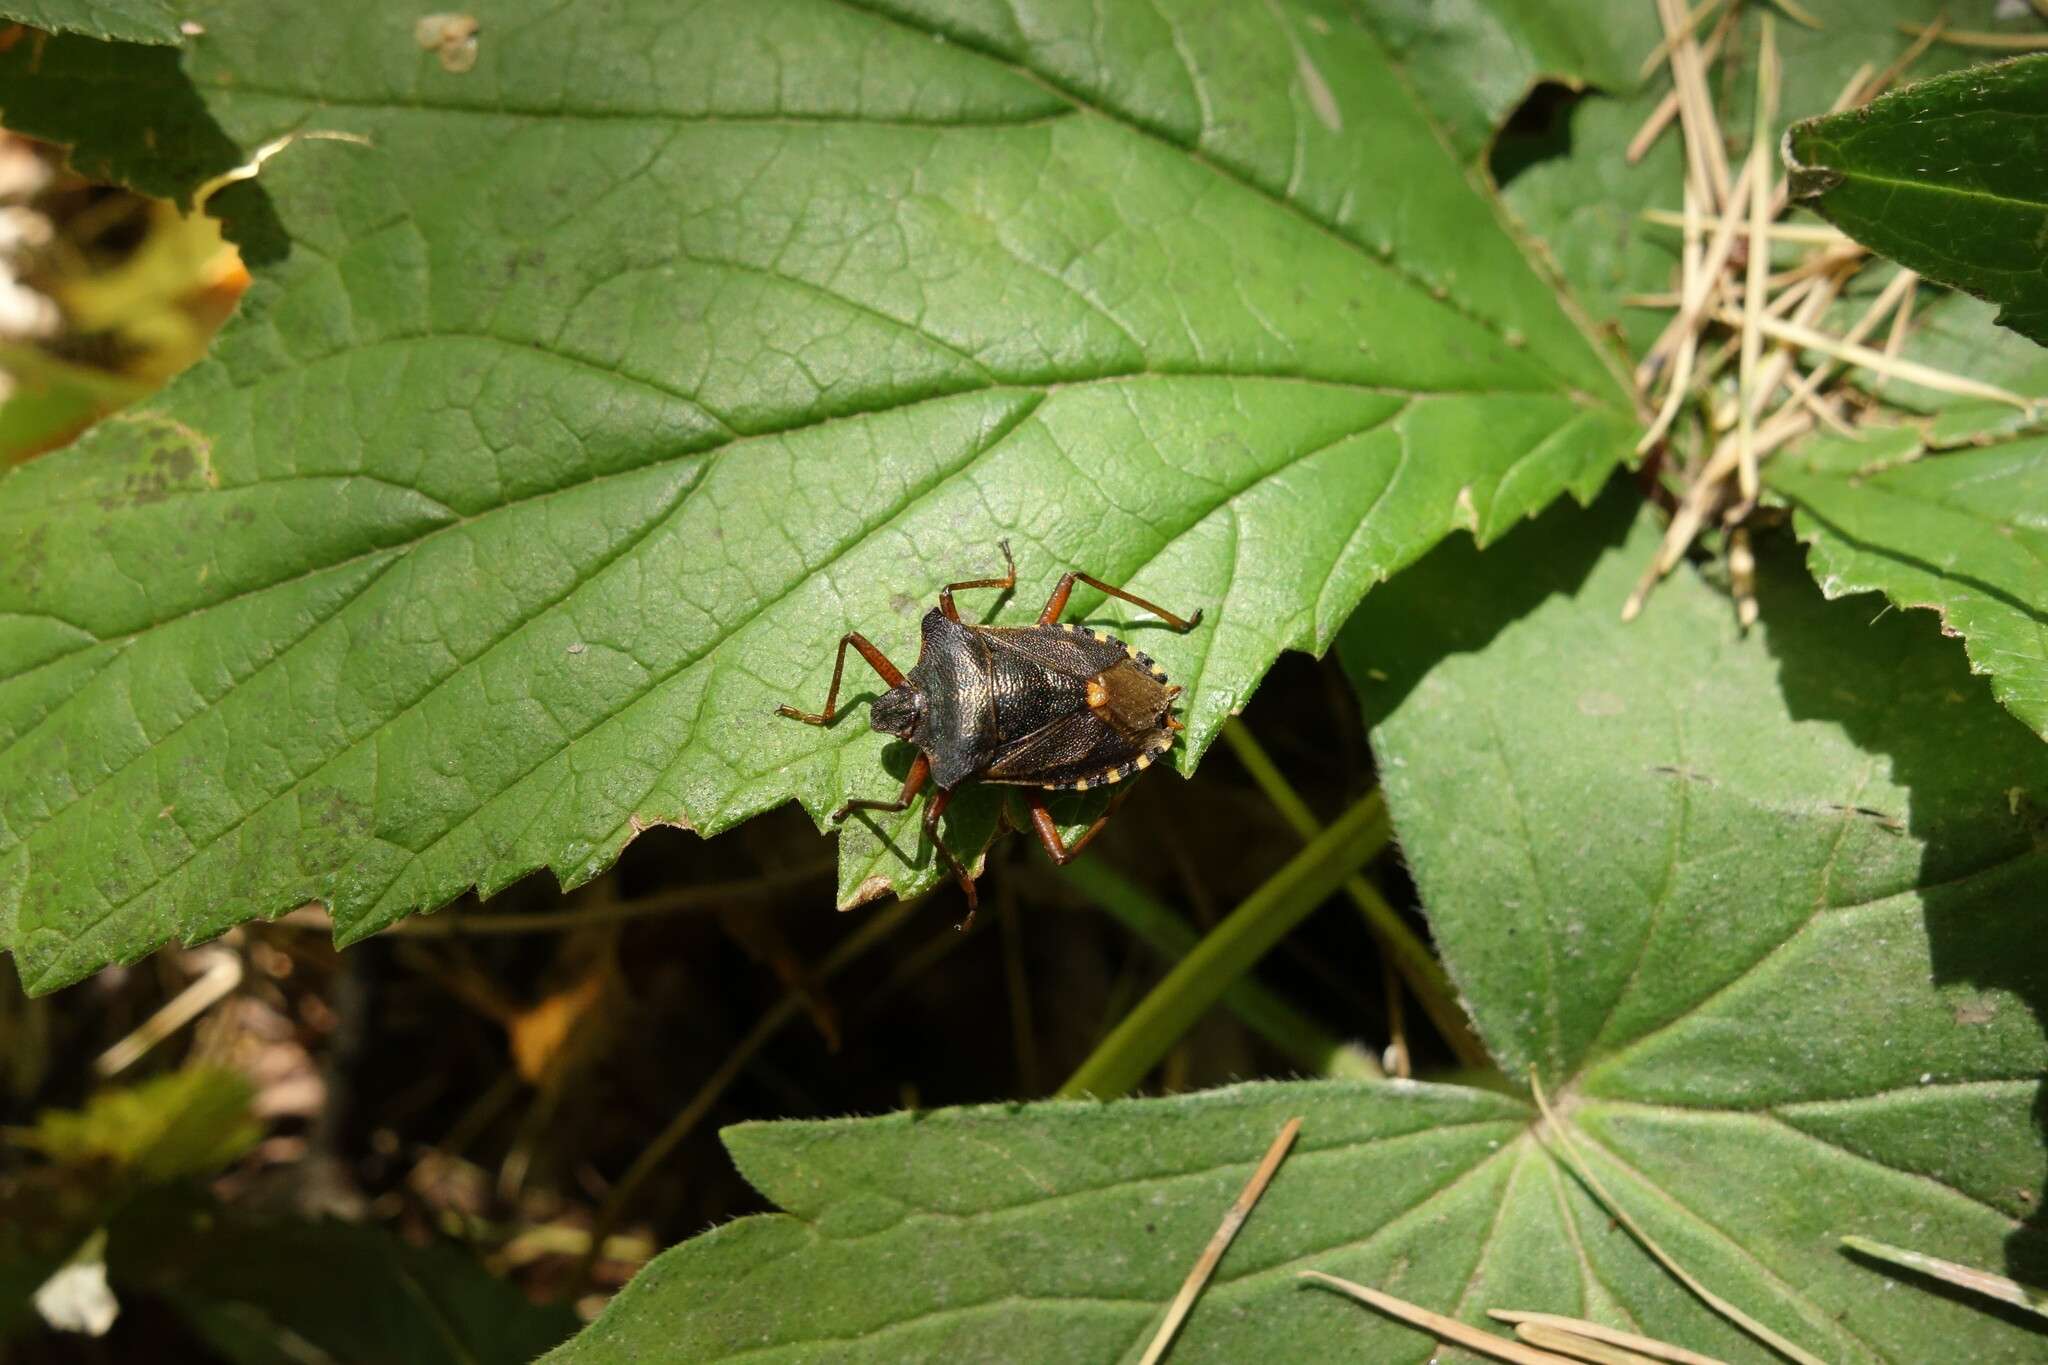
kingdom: Animalia
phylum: Arthropoda
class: Insecta
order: Hemiptera
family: Pentatomidae
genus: Pentatoma
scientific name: Pentatoma rufipes
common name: Forest bug
